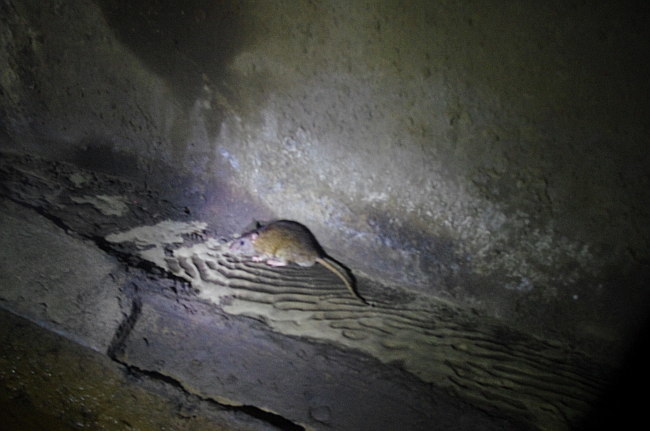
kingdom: Animalia
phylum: Chordata
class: Mammalia
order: Rodentia
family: Muridae
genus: Rattus
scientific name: Rattus norvegicus
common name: Brown rat
